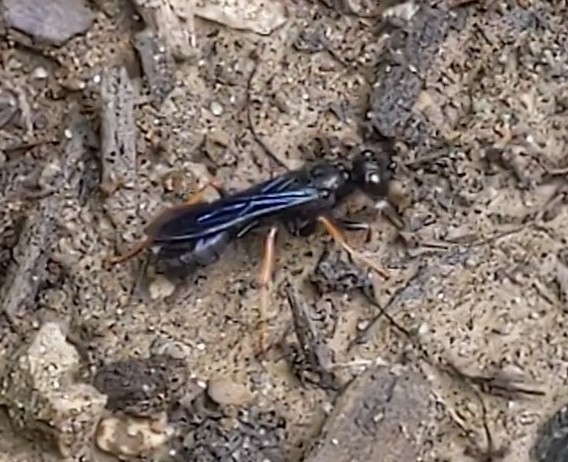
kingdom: Animalia
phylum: Arthropoda
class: Insecta
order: Hymenoptera
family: Sphecidae
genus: Podium
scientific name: Podium luctuosum
